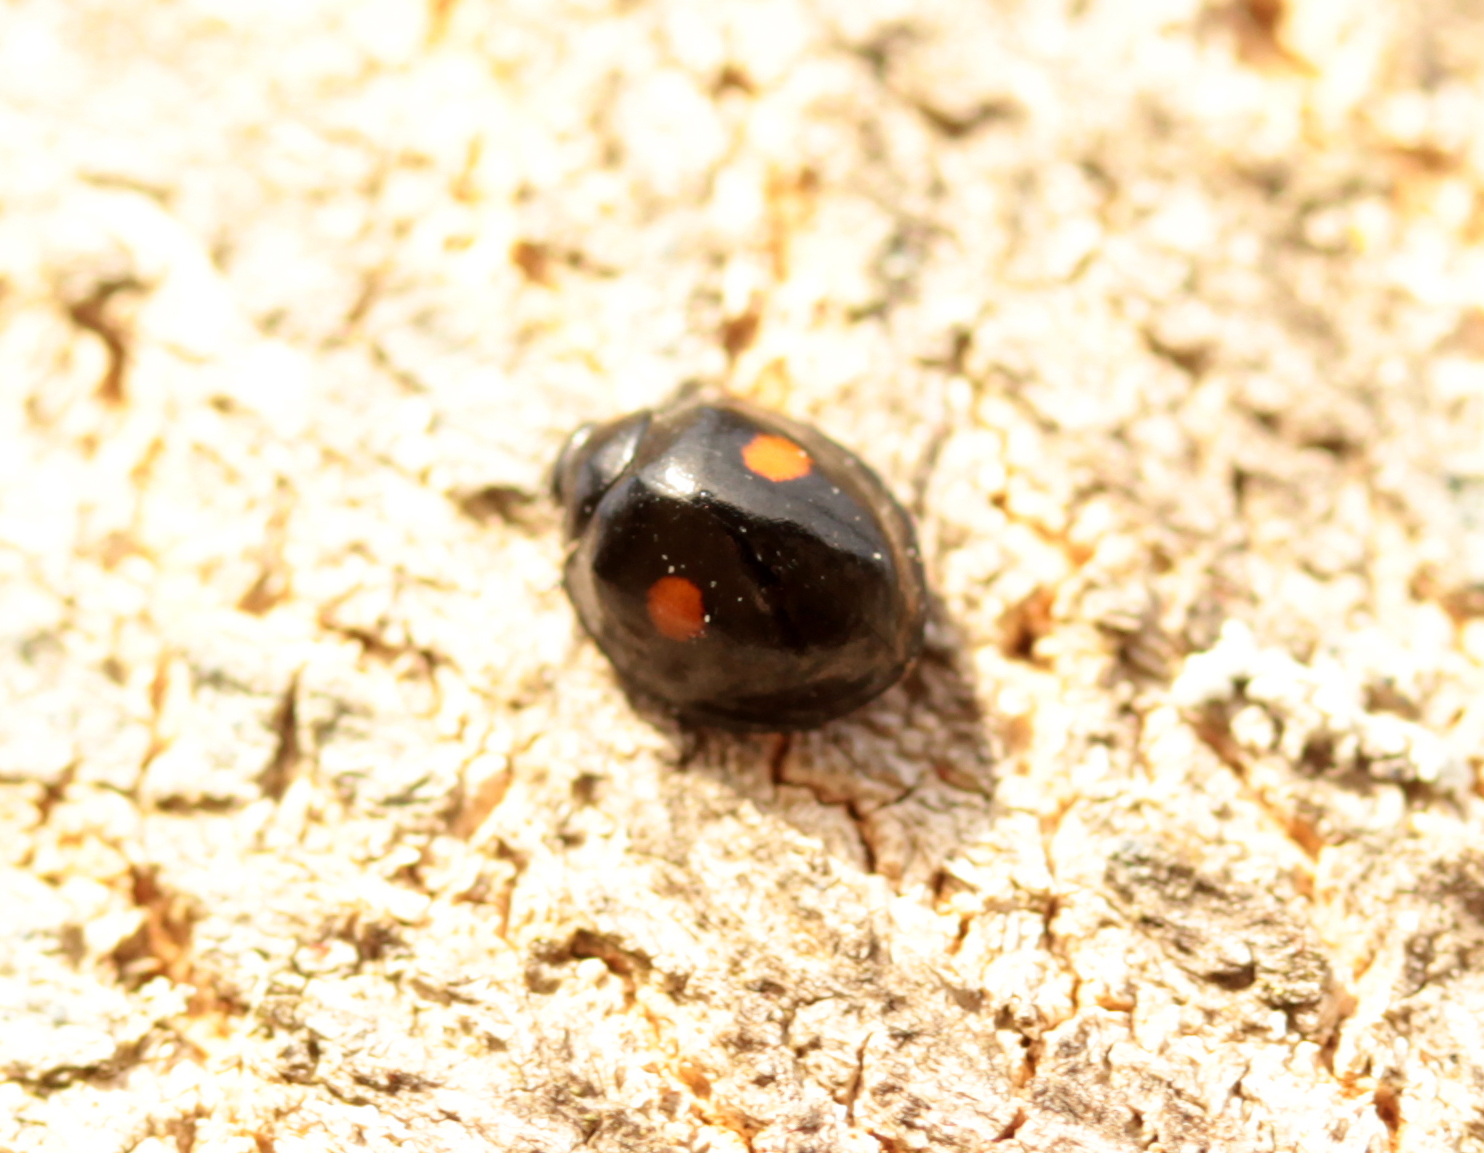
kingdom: Animalia
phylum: Arthropoda
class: Insecta
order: Coleoptera
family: Coccinellidae
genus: Chilocorus
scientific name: Chilocorus stigma
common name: Twicestabbed lady beetle
